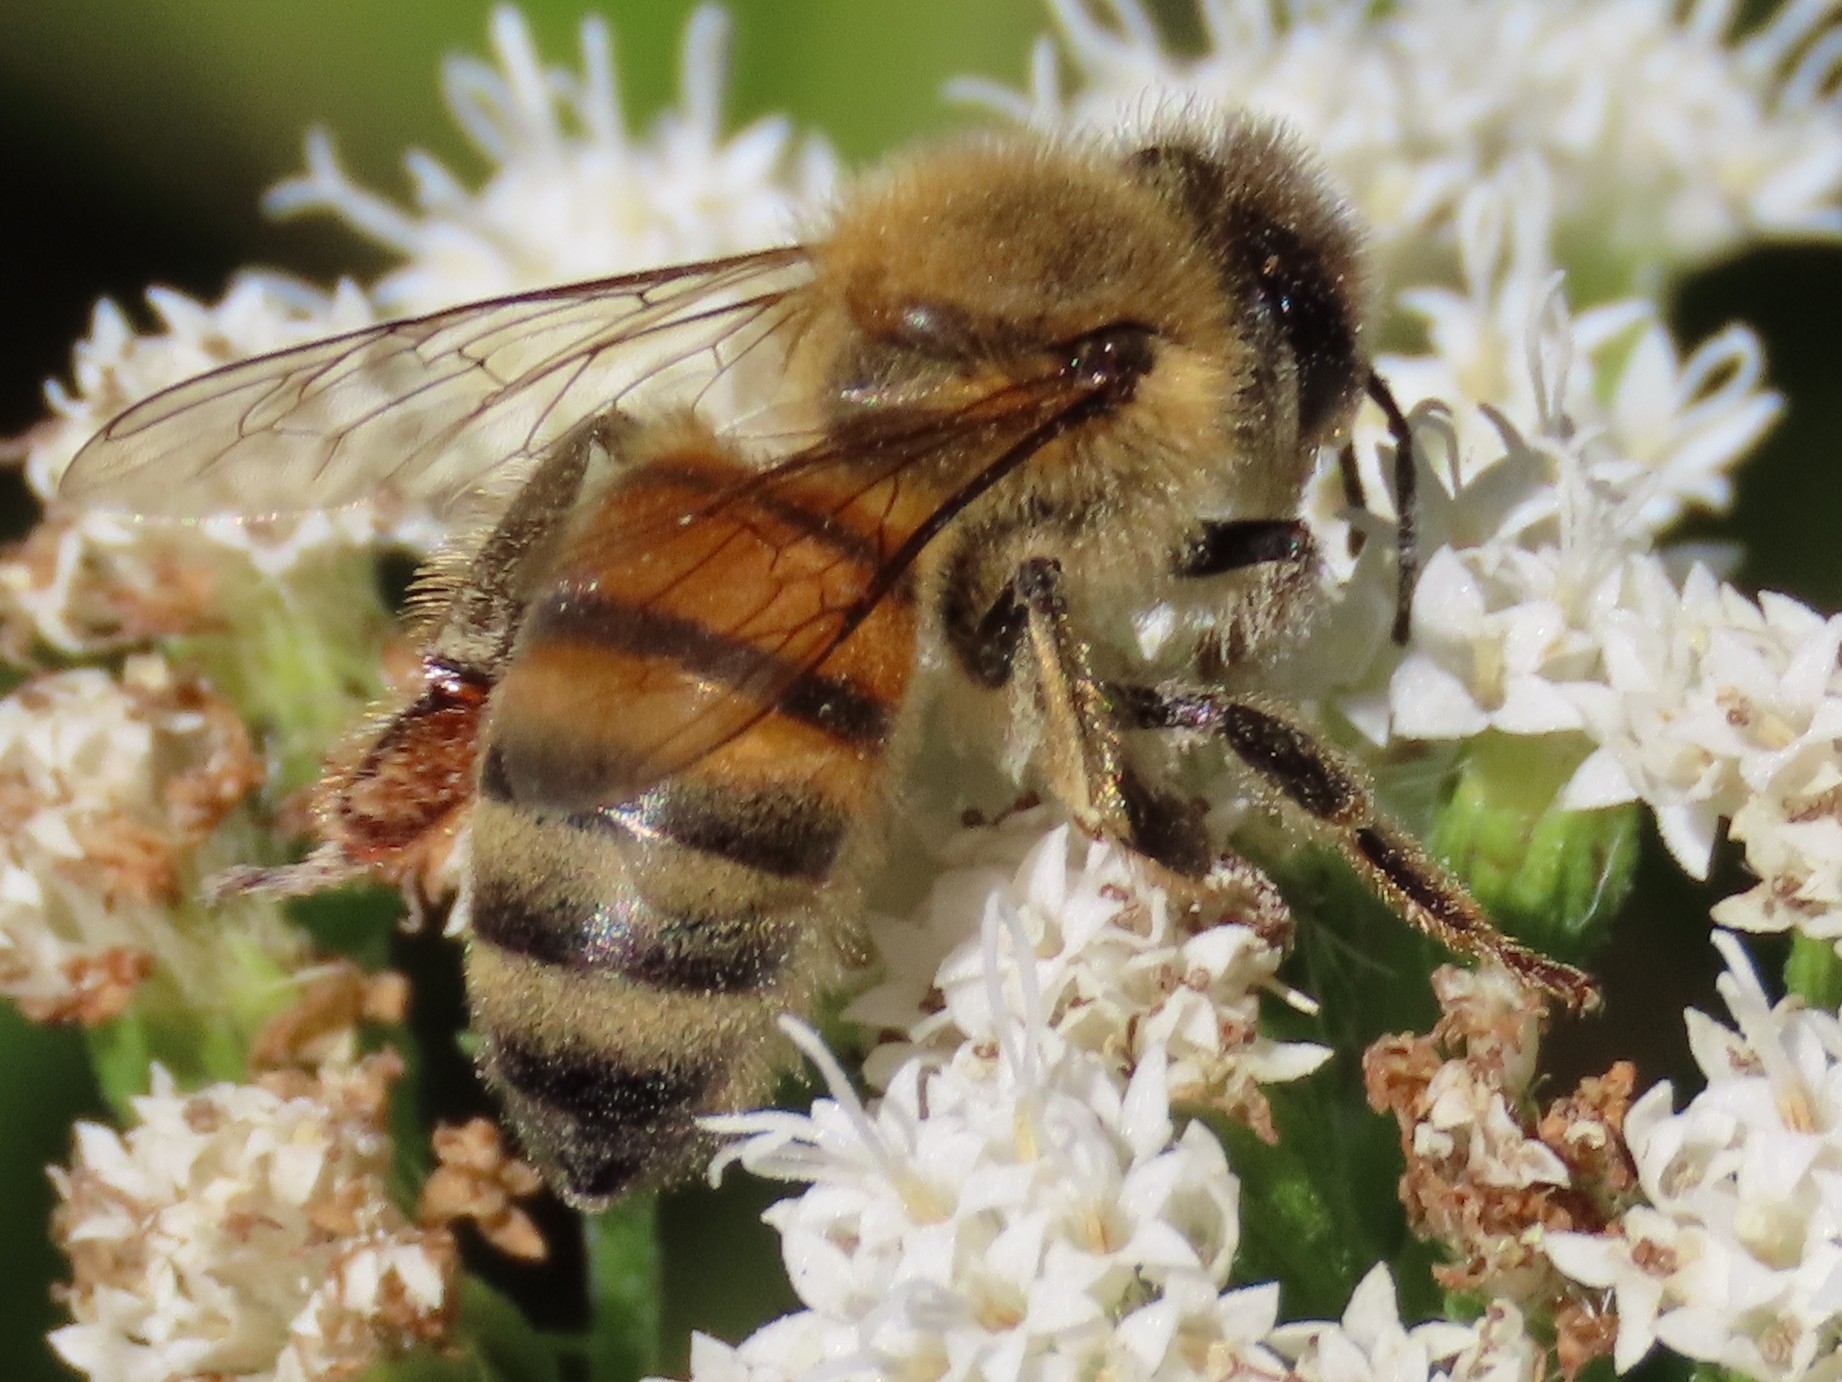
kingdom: Animalia
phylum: Arthropoda
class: Insecta
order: Hymenoptera
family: Apidae
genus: Apis
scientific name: Apis mellifera
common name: Honey bee
